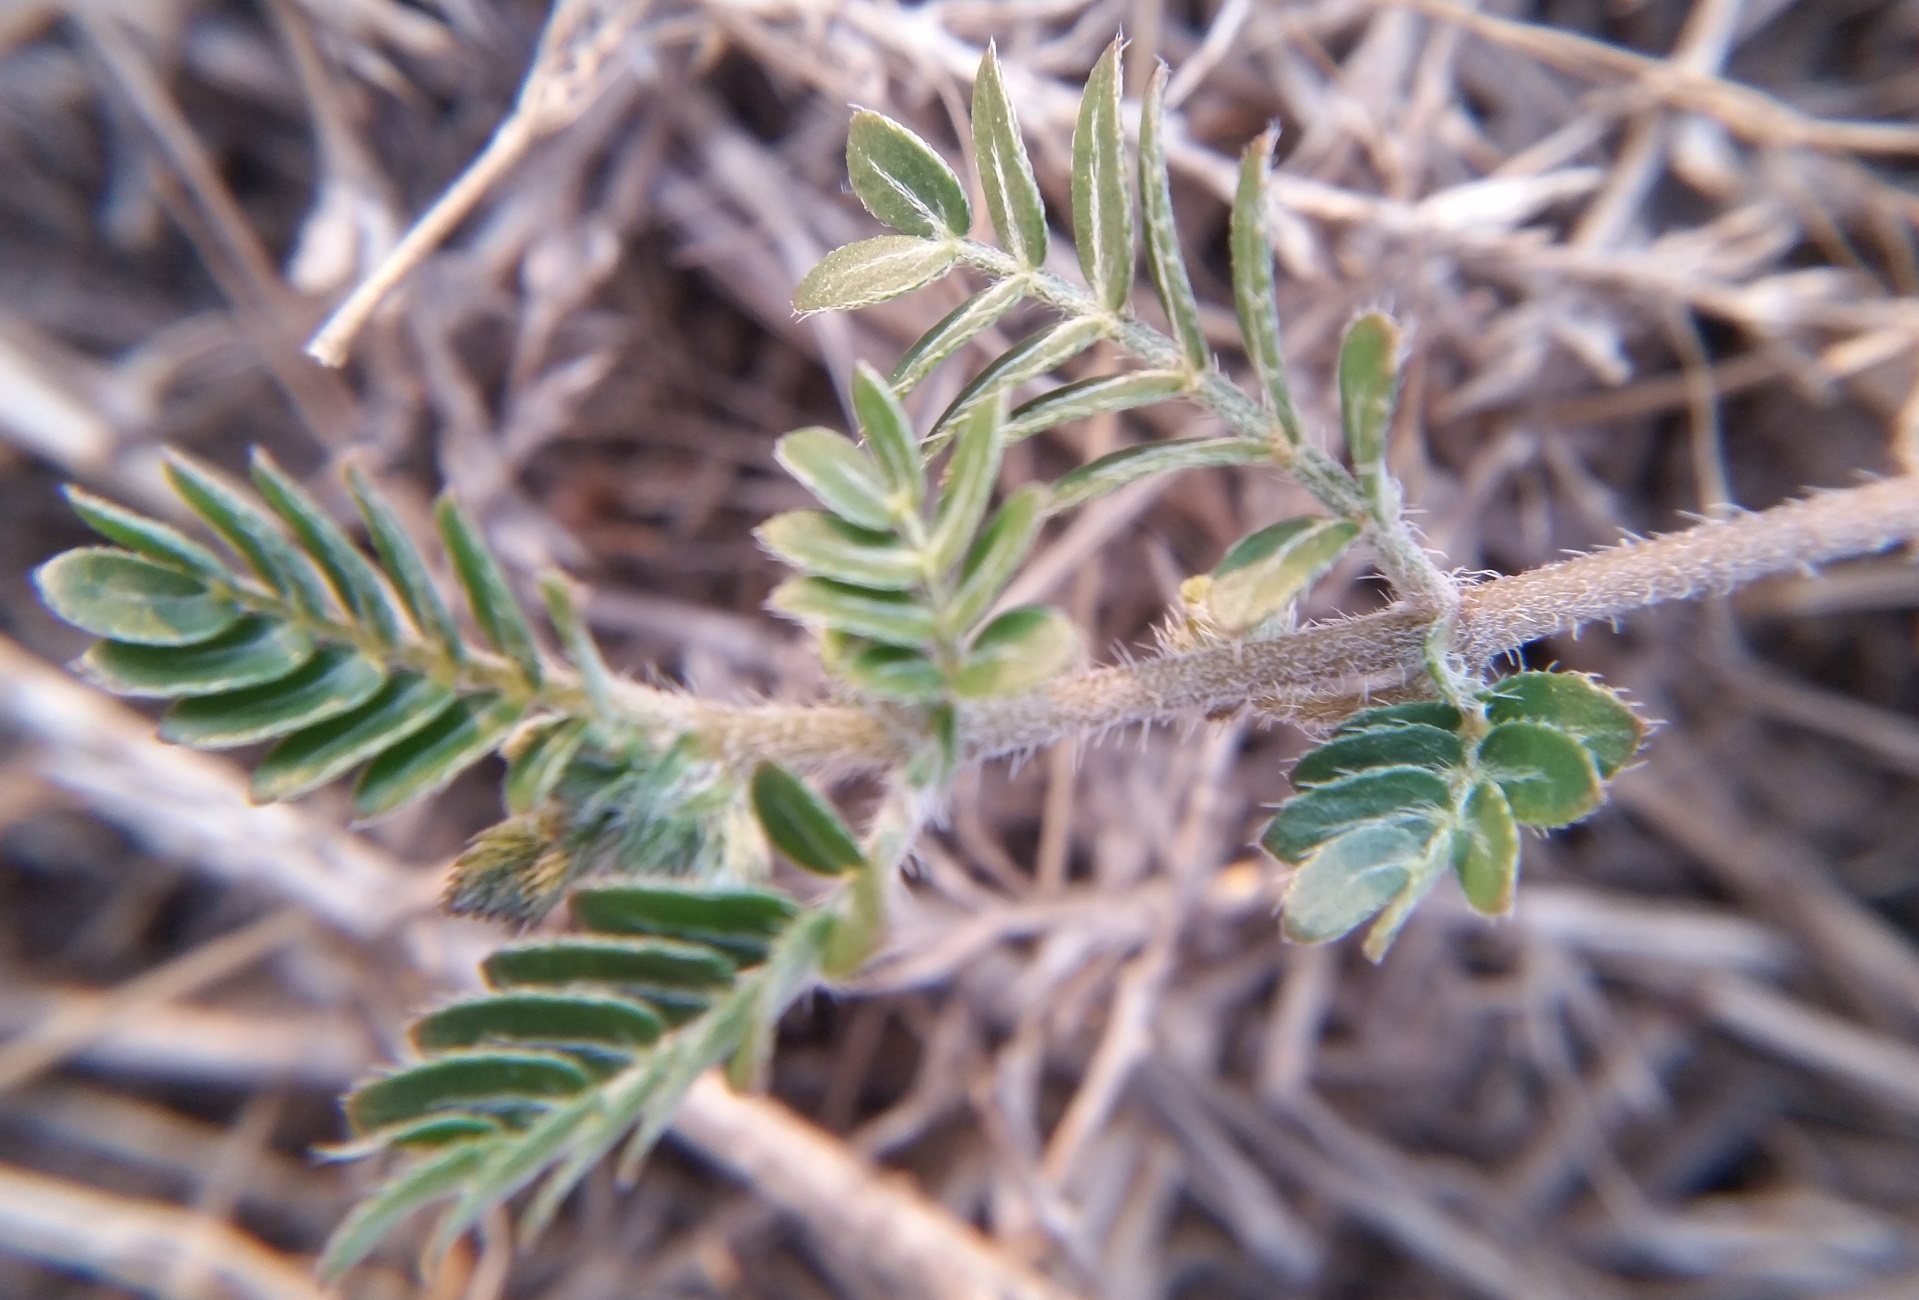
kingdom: Plantae
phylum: Tracheophyta
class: Magnoliopsida
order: Zygophyllales
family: Zygophyllaceae
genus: Tribulus
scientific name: Tribulus terrestris
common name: Puncturevine
